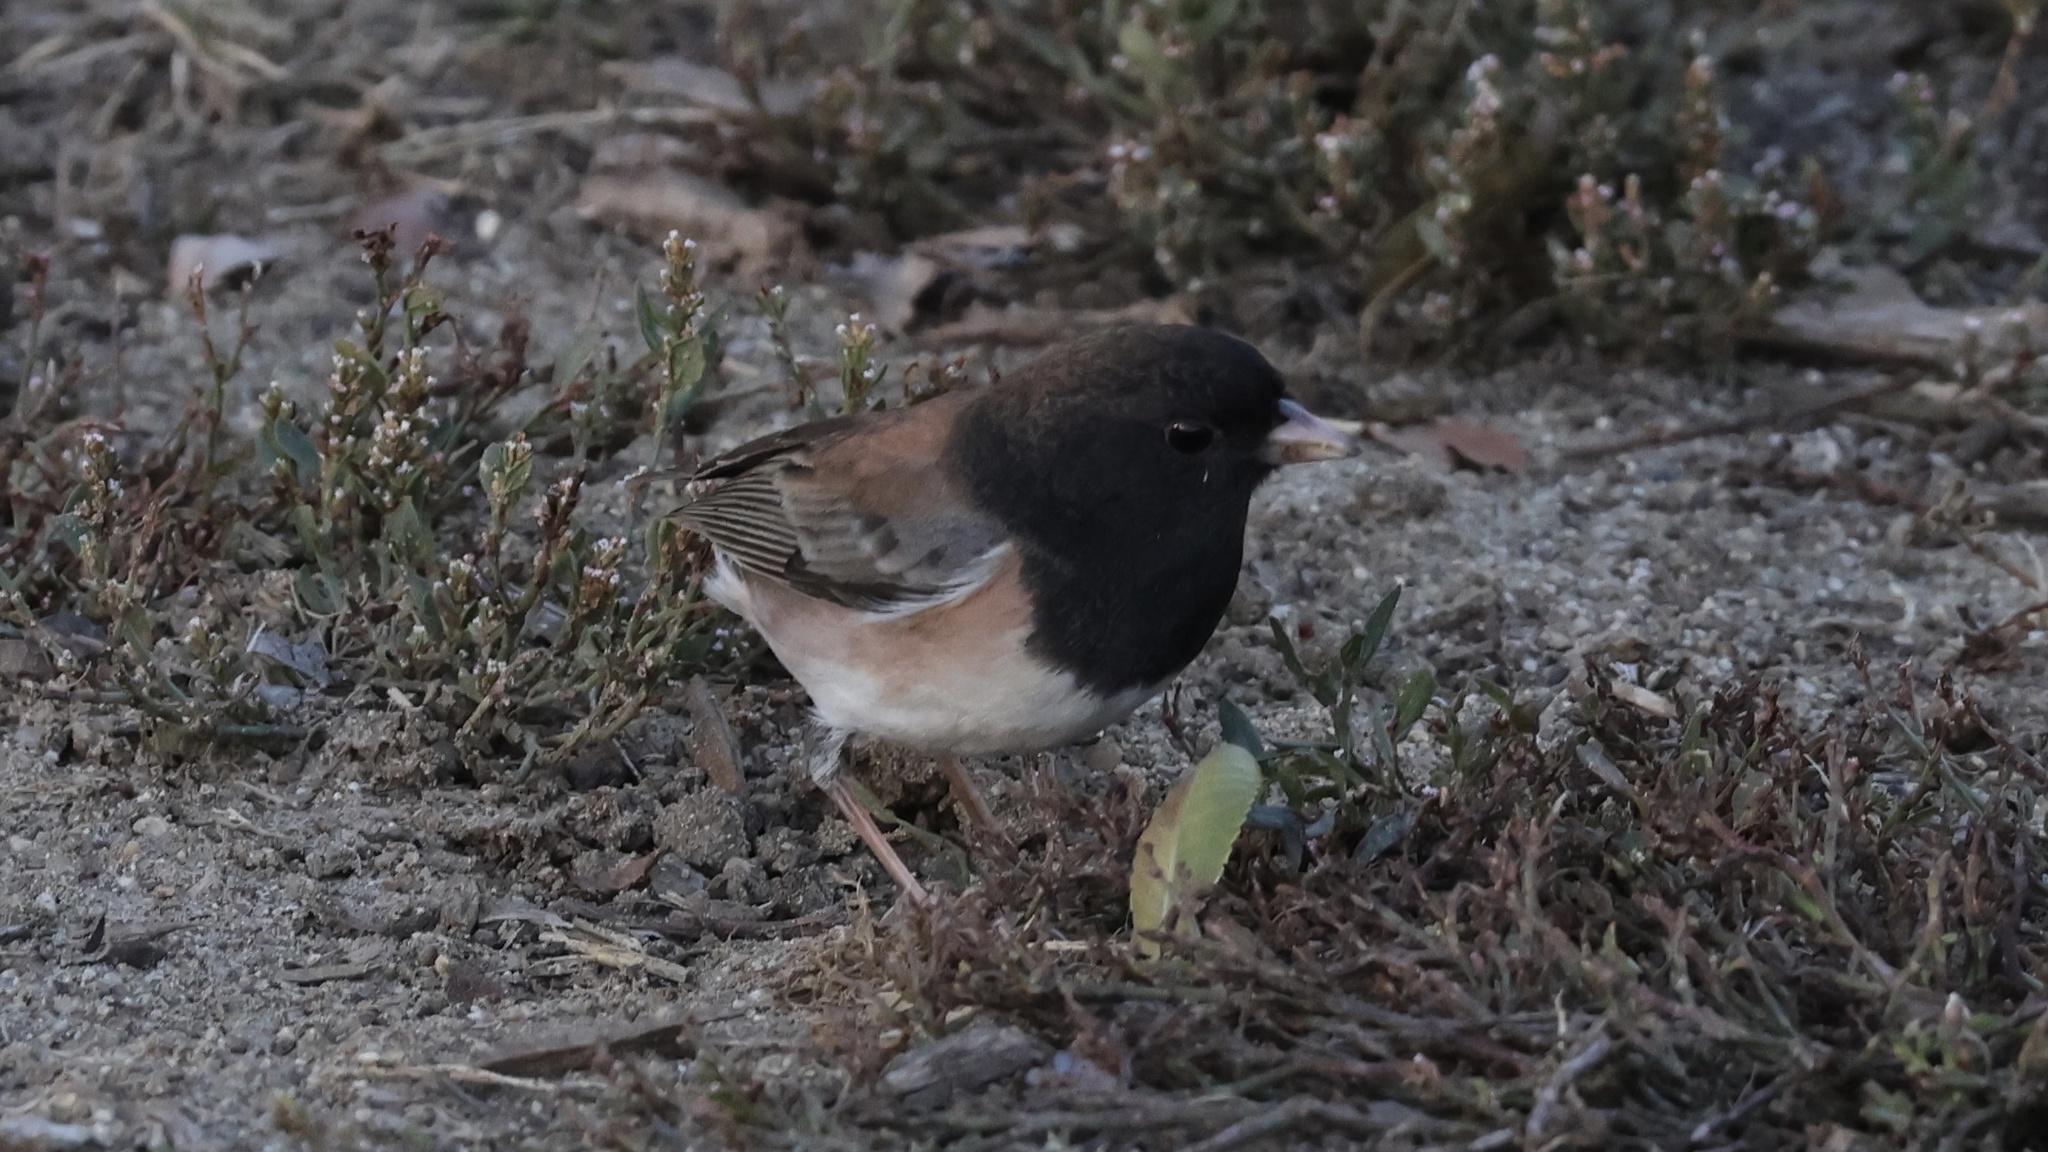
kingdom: Animalia
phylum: Chordata
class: Aves
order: Passeriformes
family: Passerellidae
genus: Junco
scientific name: Junco hyemalis
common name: Dark-eyed junco
